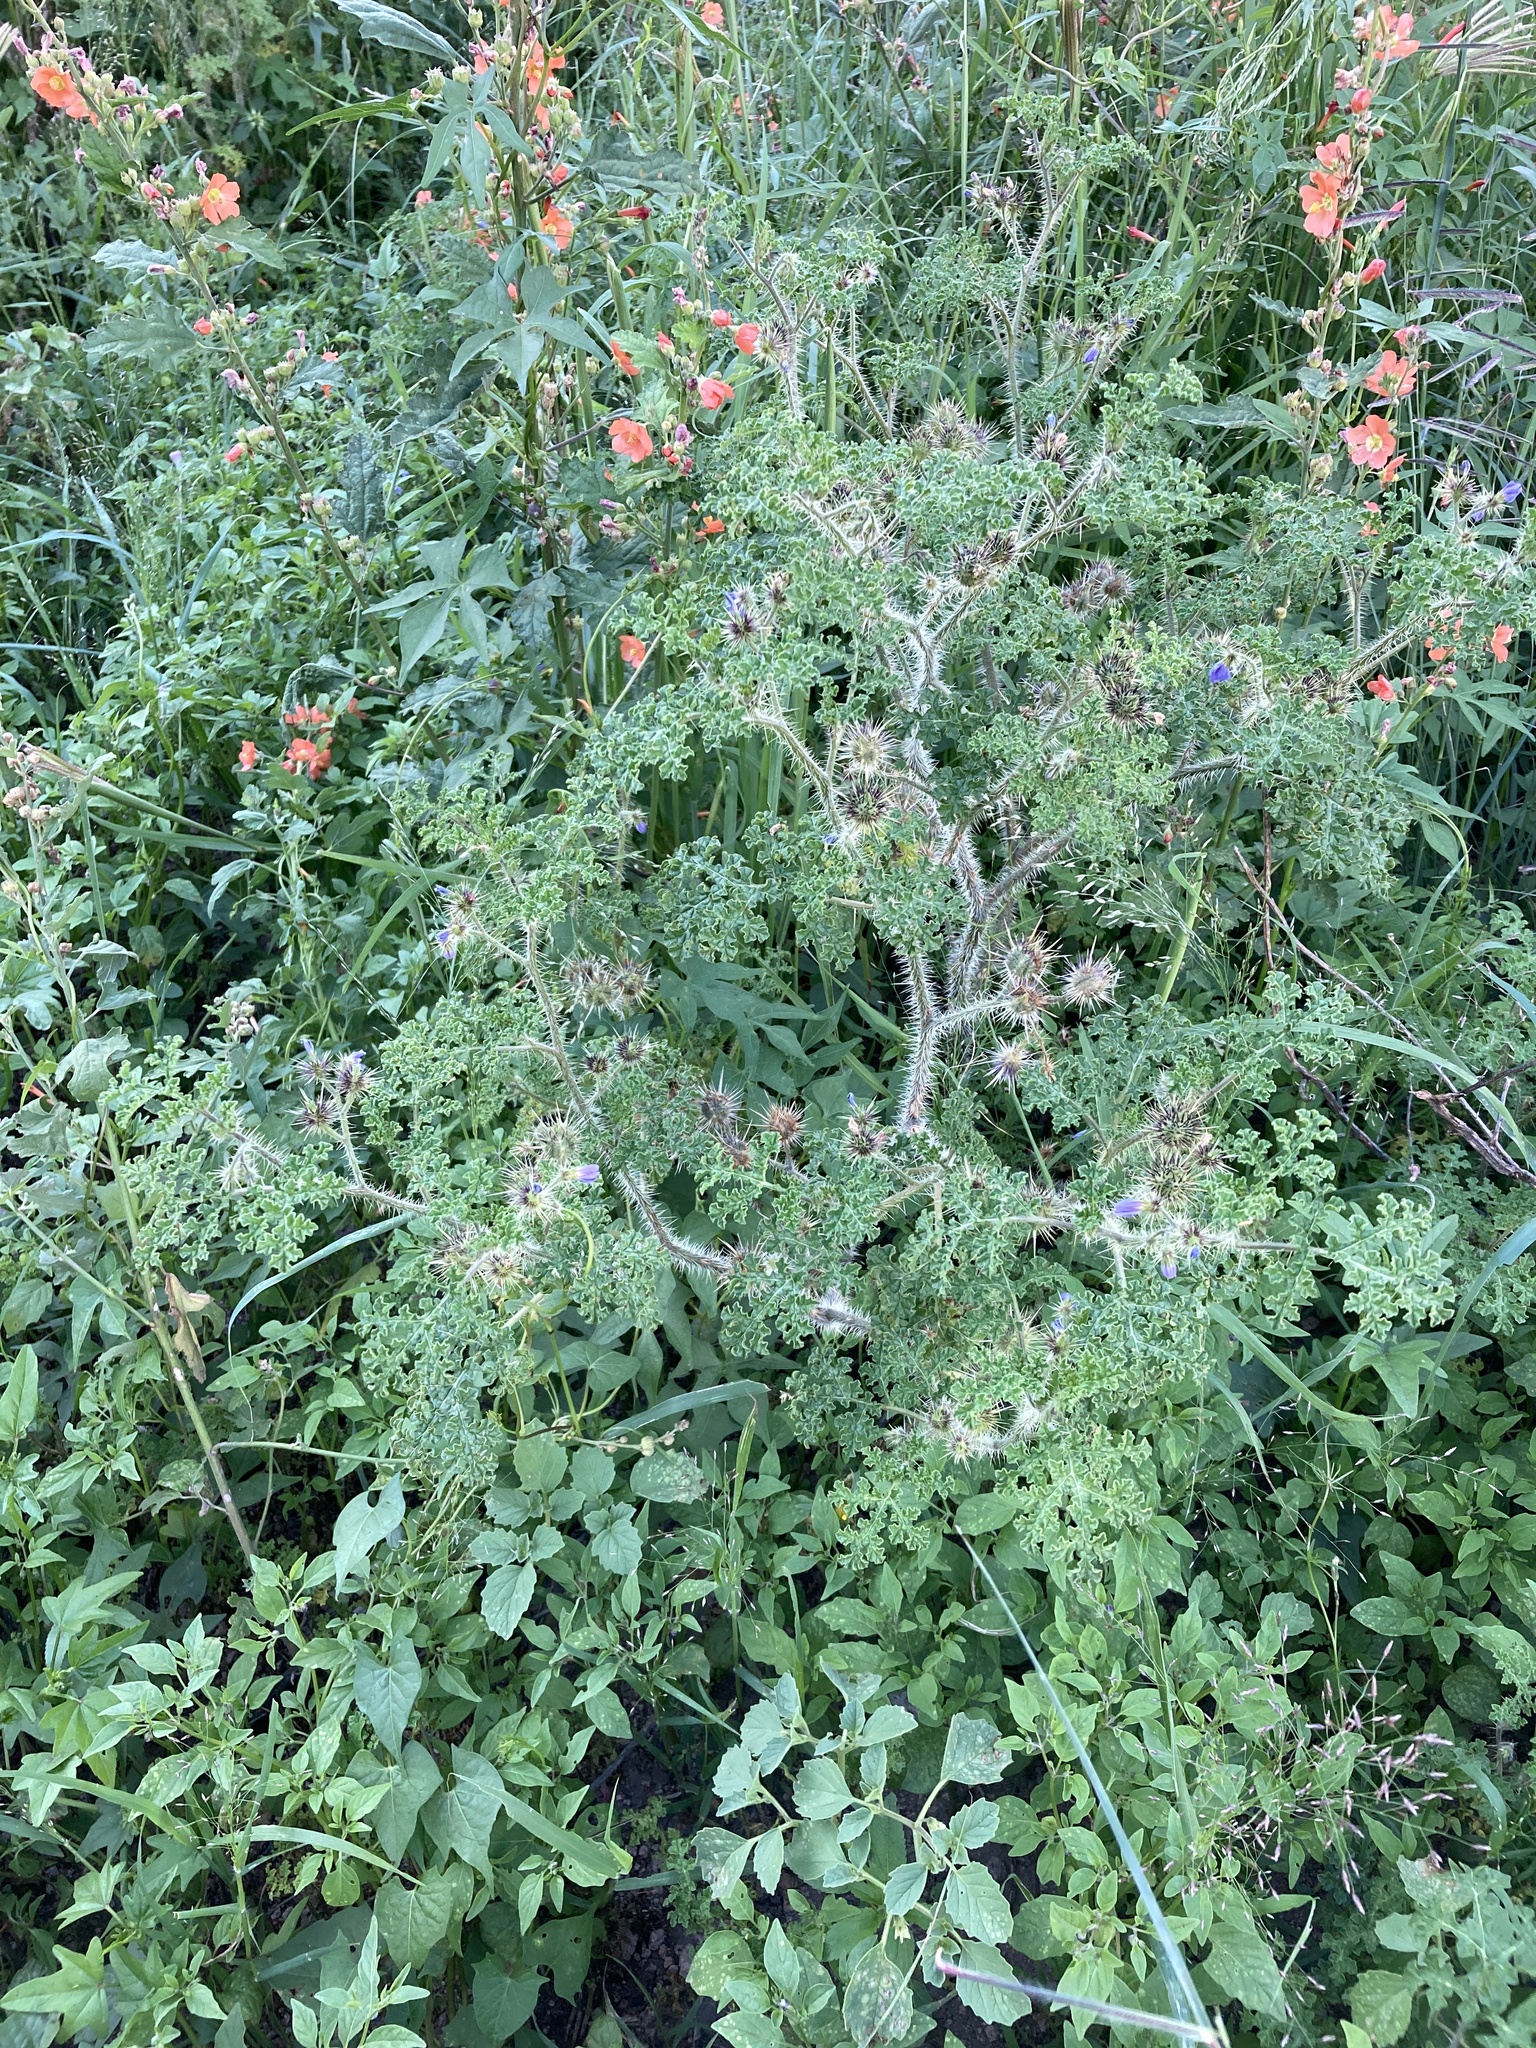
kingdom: Plantae
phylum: Tracheophyta
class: Magnoliopsida
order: Solanales
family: Solanaceae
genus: Solanum
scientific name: Solanum heterodoxum
